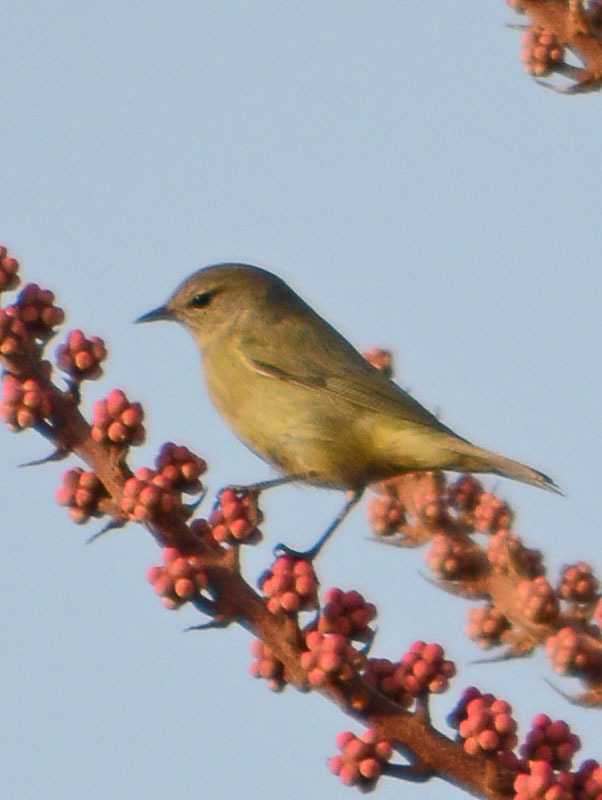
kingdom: Animalia
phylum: Chordata
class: Aves
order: Passeriformes
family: Parulidae
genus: Leiothlypis
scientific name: Leiothlypis celata
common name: Orange-crowned warbler
